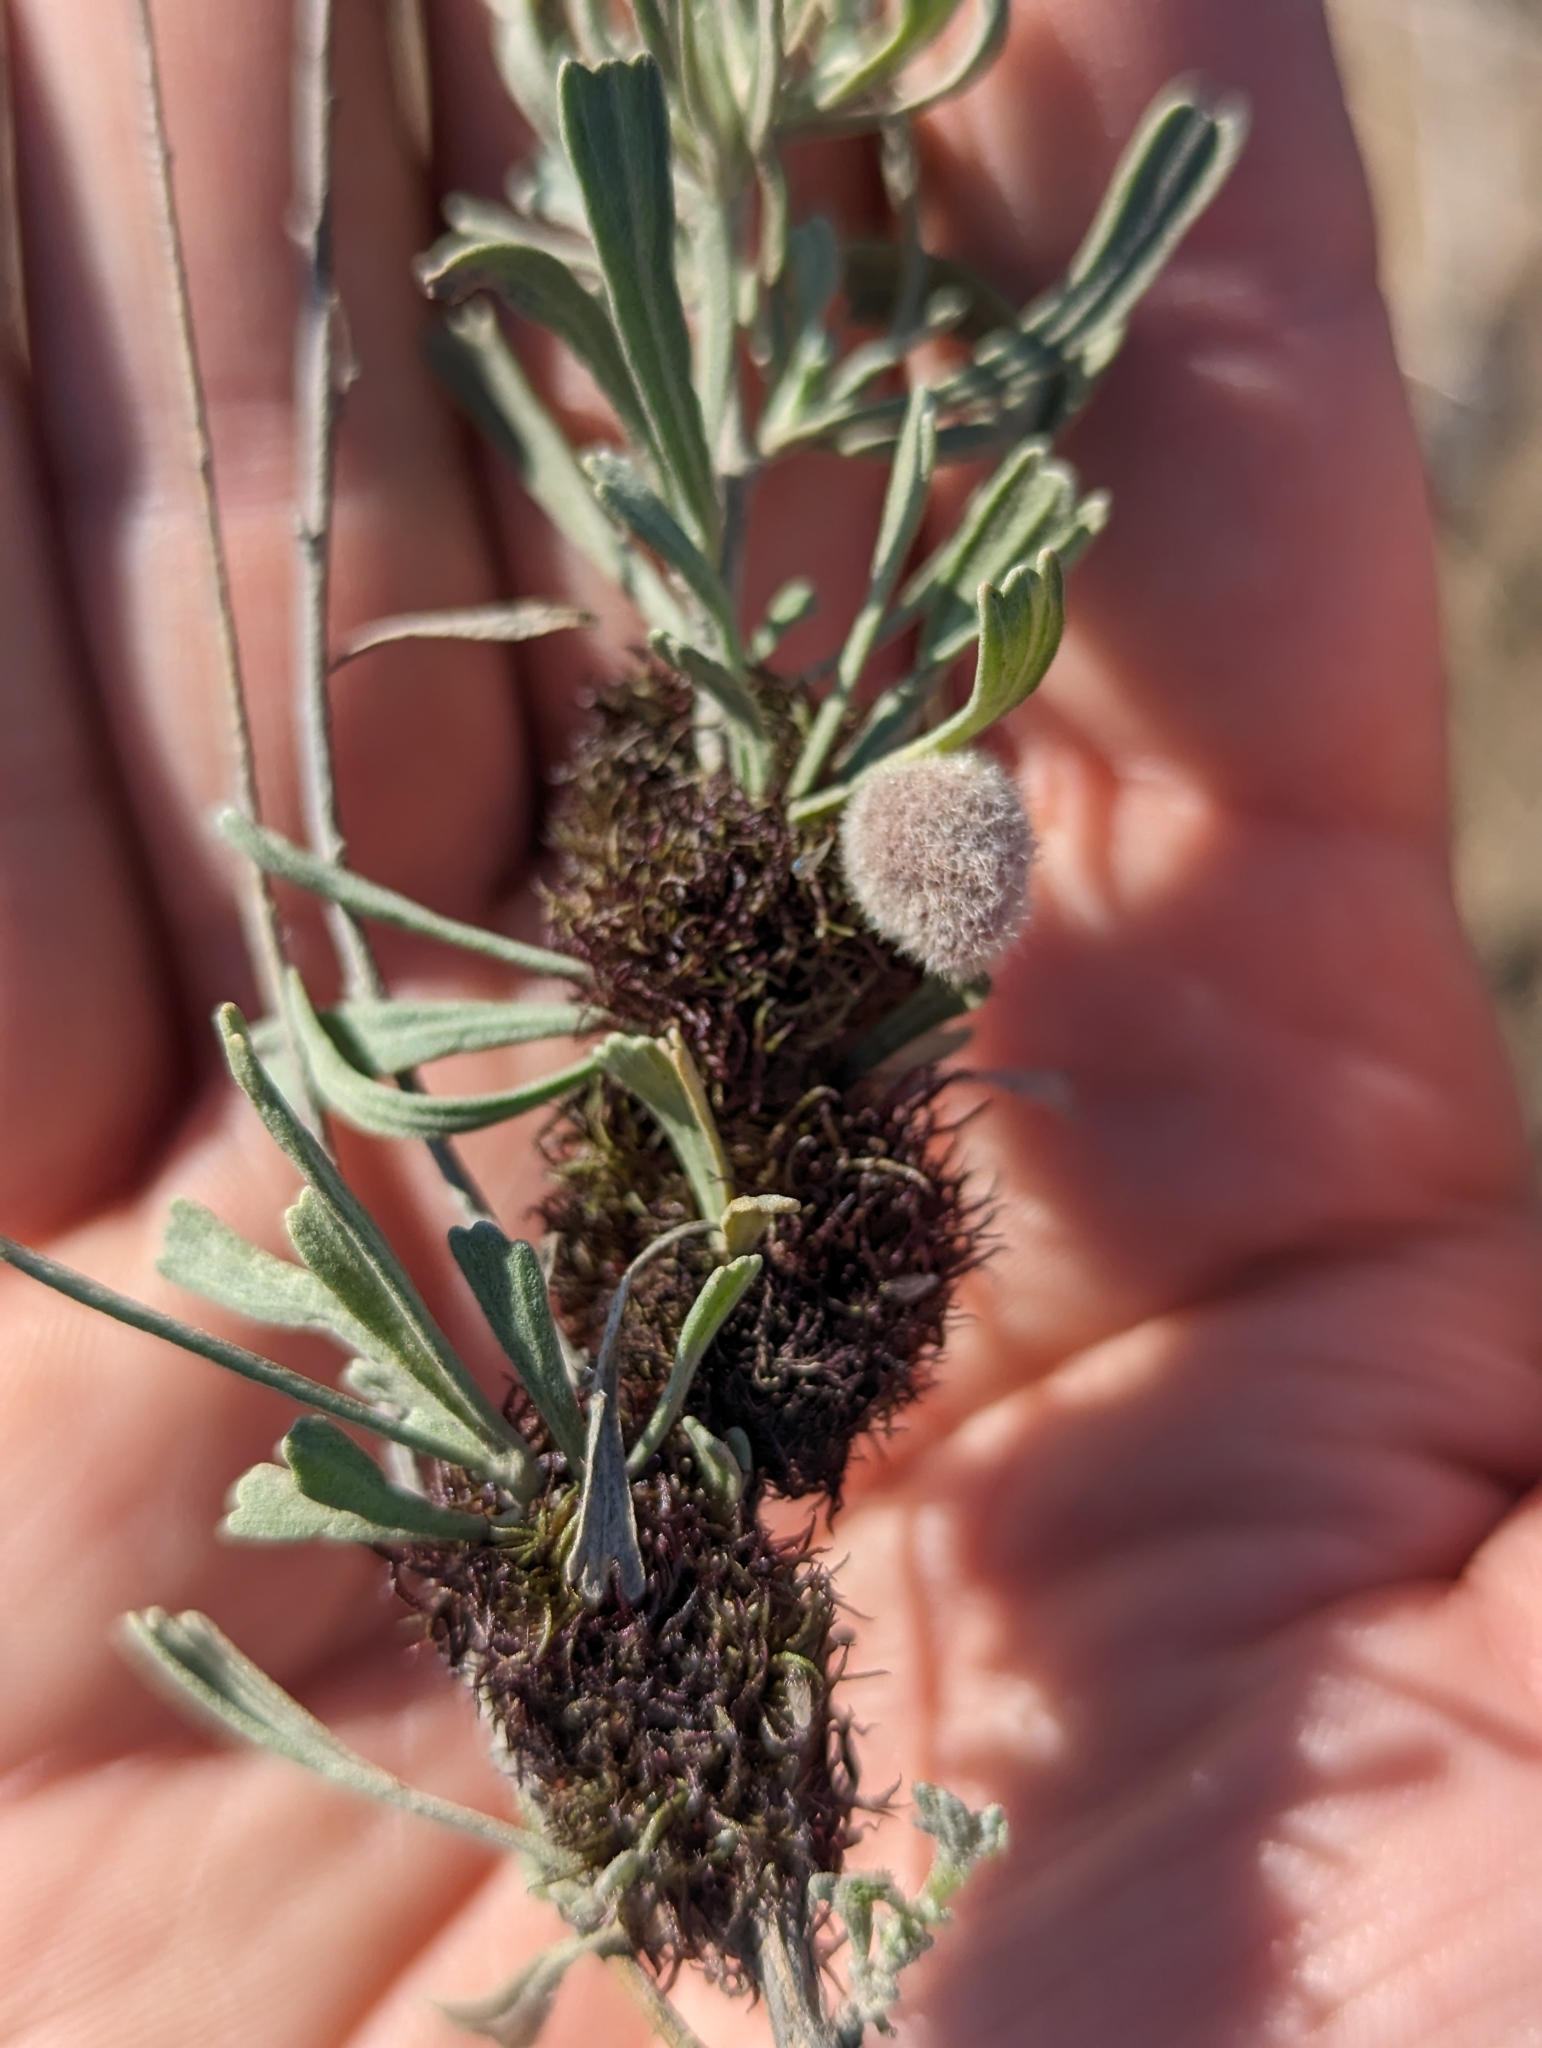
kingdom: Animalia
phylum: Arthropoda
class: Insecta
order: Diptera
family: Cecidomyiidae
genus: Rhopalomyia
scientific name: Rhopalomyia medusa
